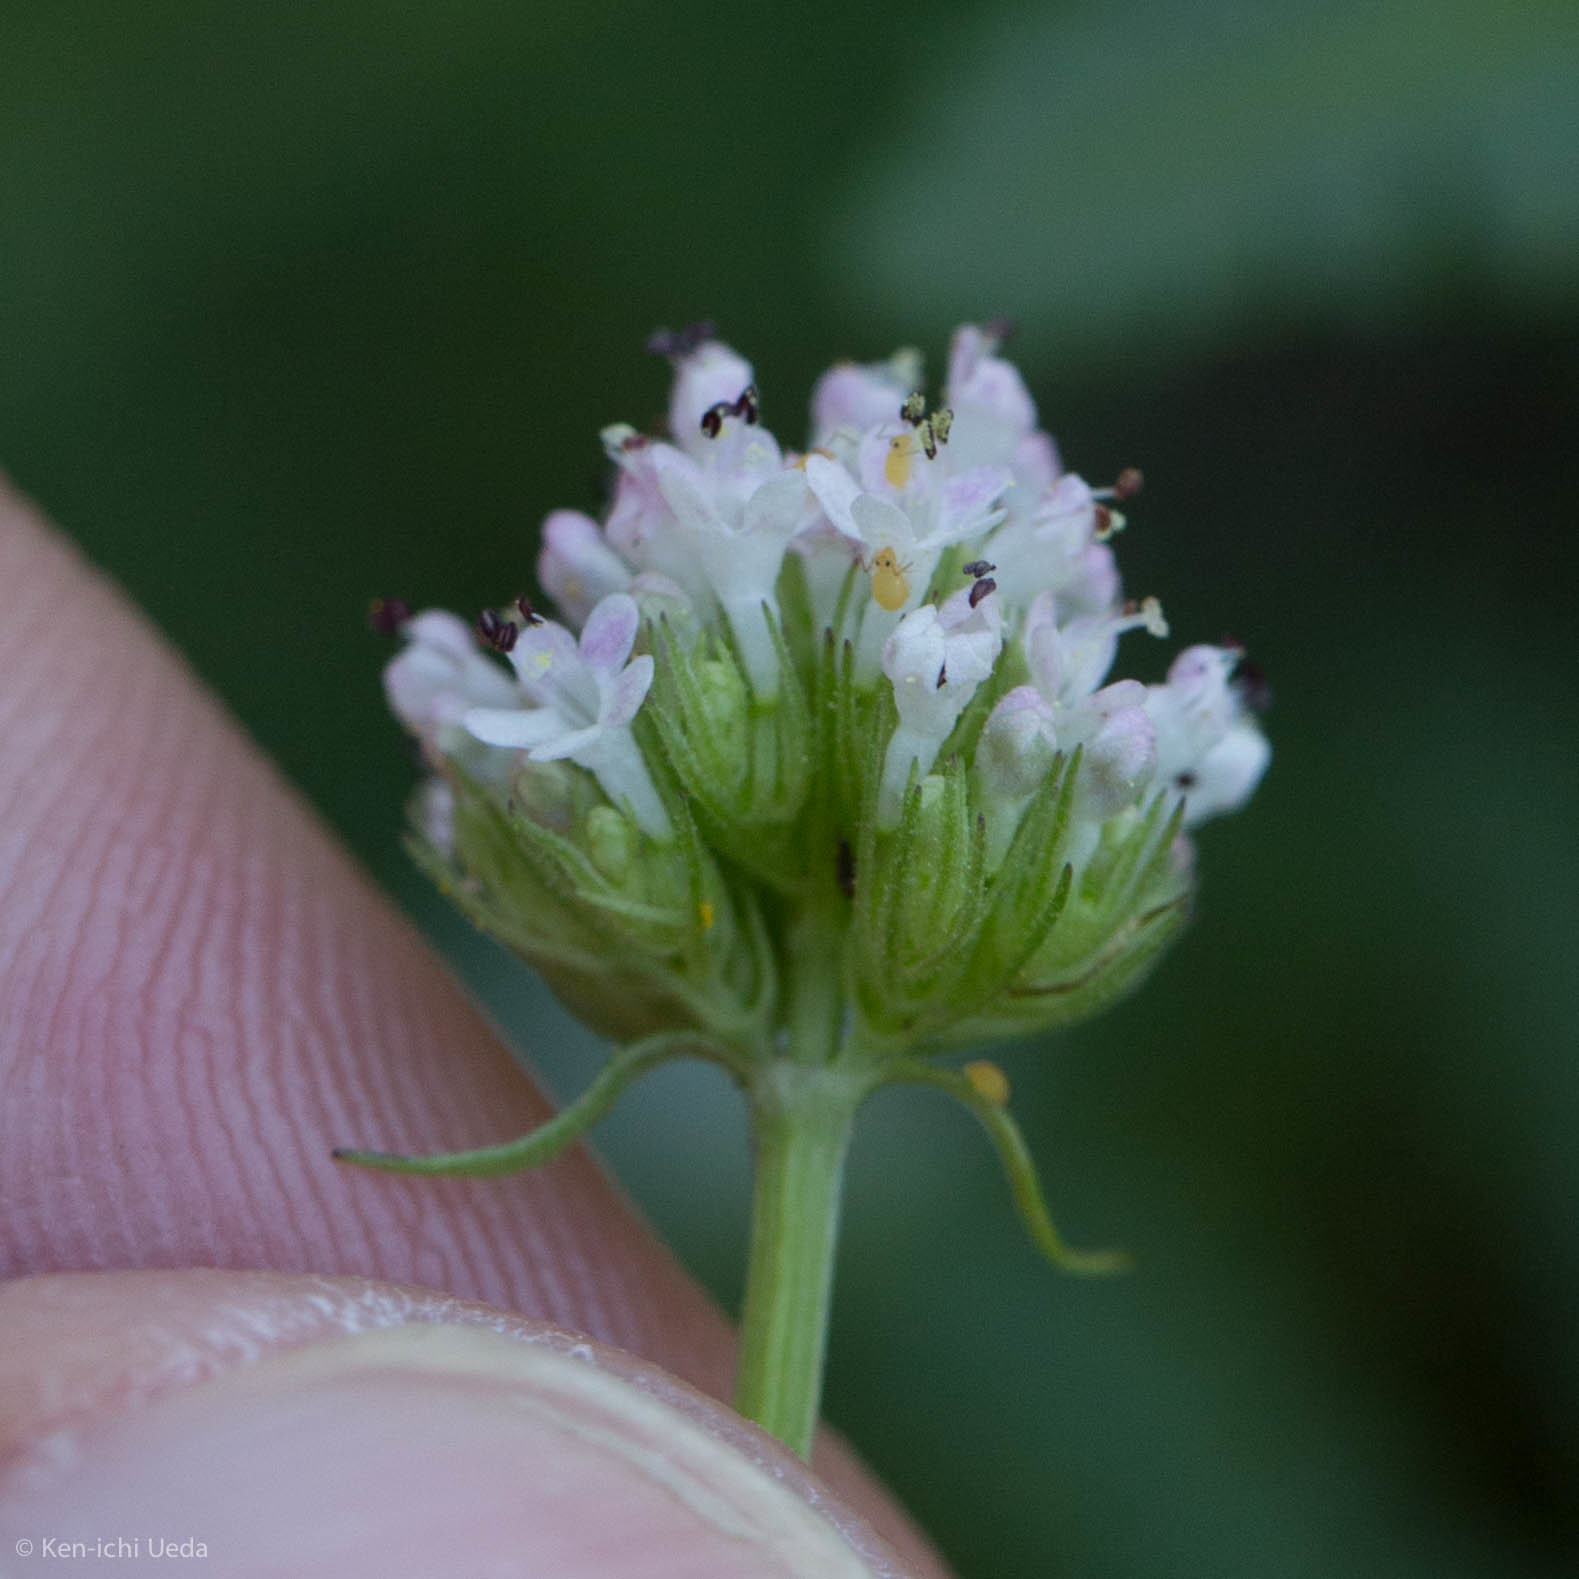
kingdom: Plantae
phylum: Tracheophyta
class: Magnoliopsida
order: Dipsacales
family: Caprifoliaceae
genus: Plectritis
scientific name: Plectritis macroptera
